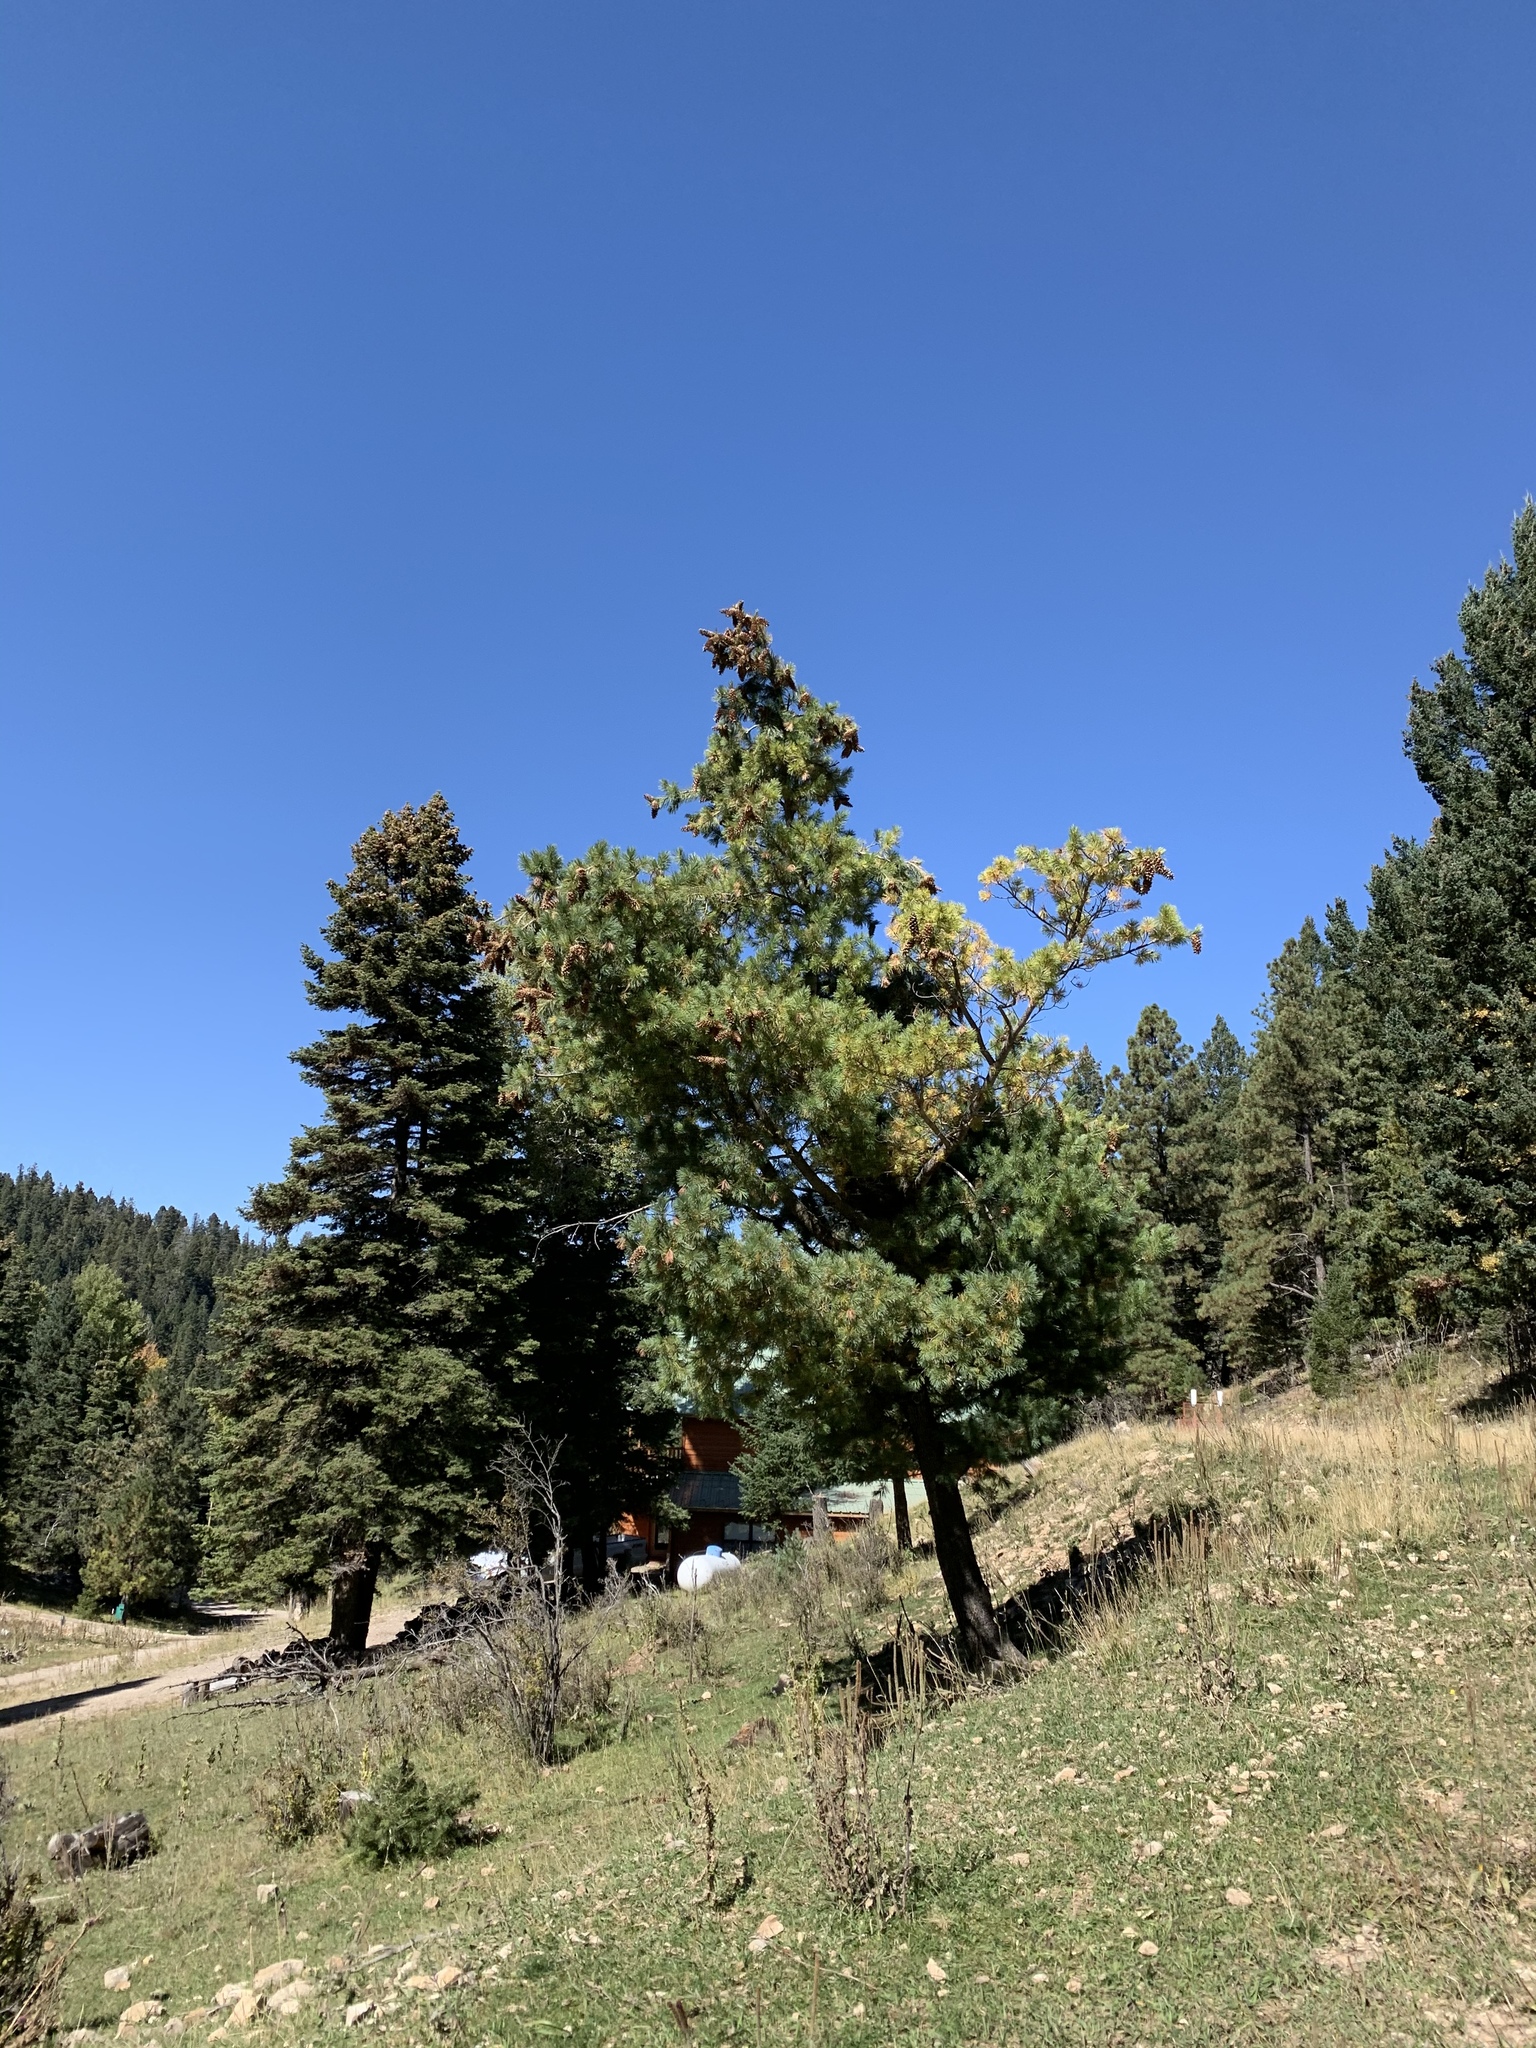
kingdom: Plantae
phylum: Tracheophyta
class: Pinopsida
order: Pinales
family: Pinaceae
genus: Pinus
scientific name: Pinus strobiformis
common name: Southwestern white pine
